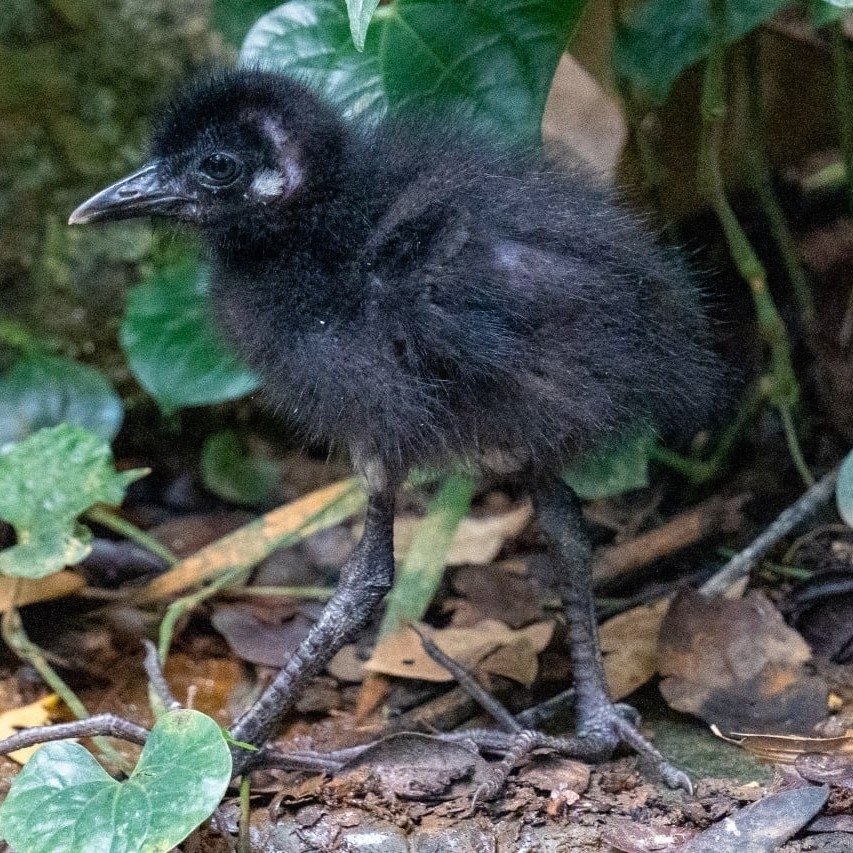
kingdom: Animalia
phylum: Chordata
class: Aves
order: Gruiformes
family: Rallidae
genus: Amaurornis
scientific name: Amaurornis phoenicurus
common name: White-breasted waterhen
